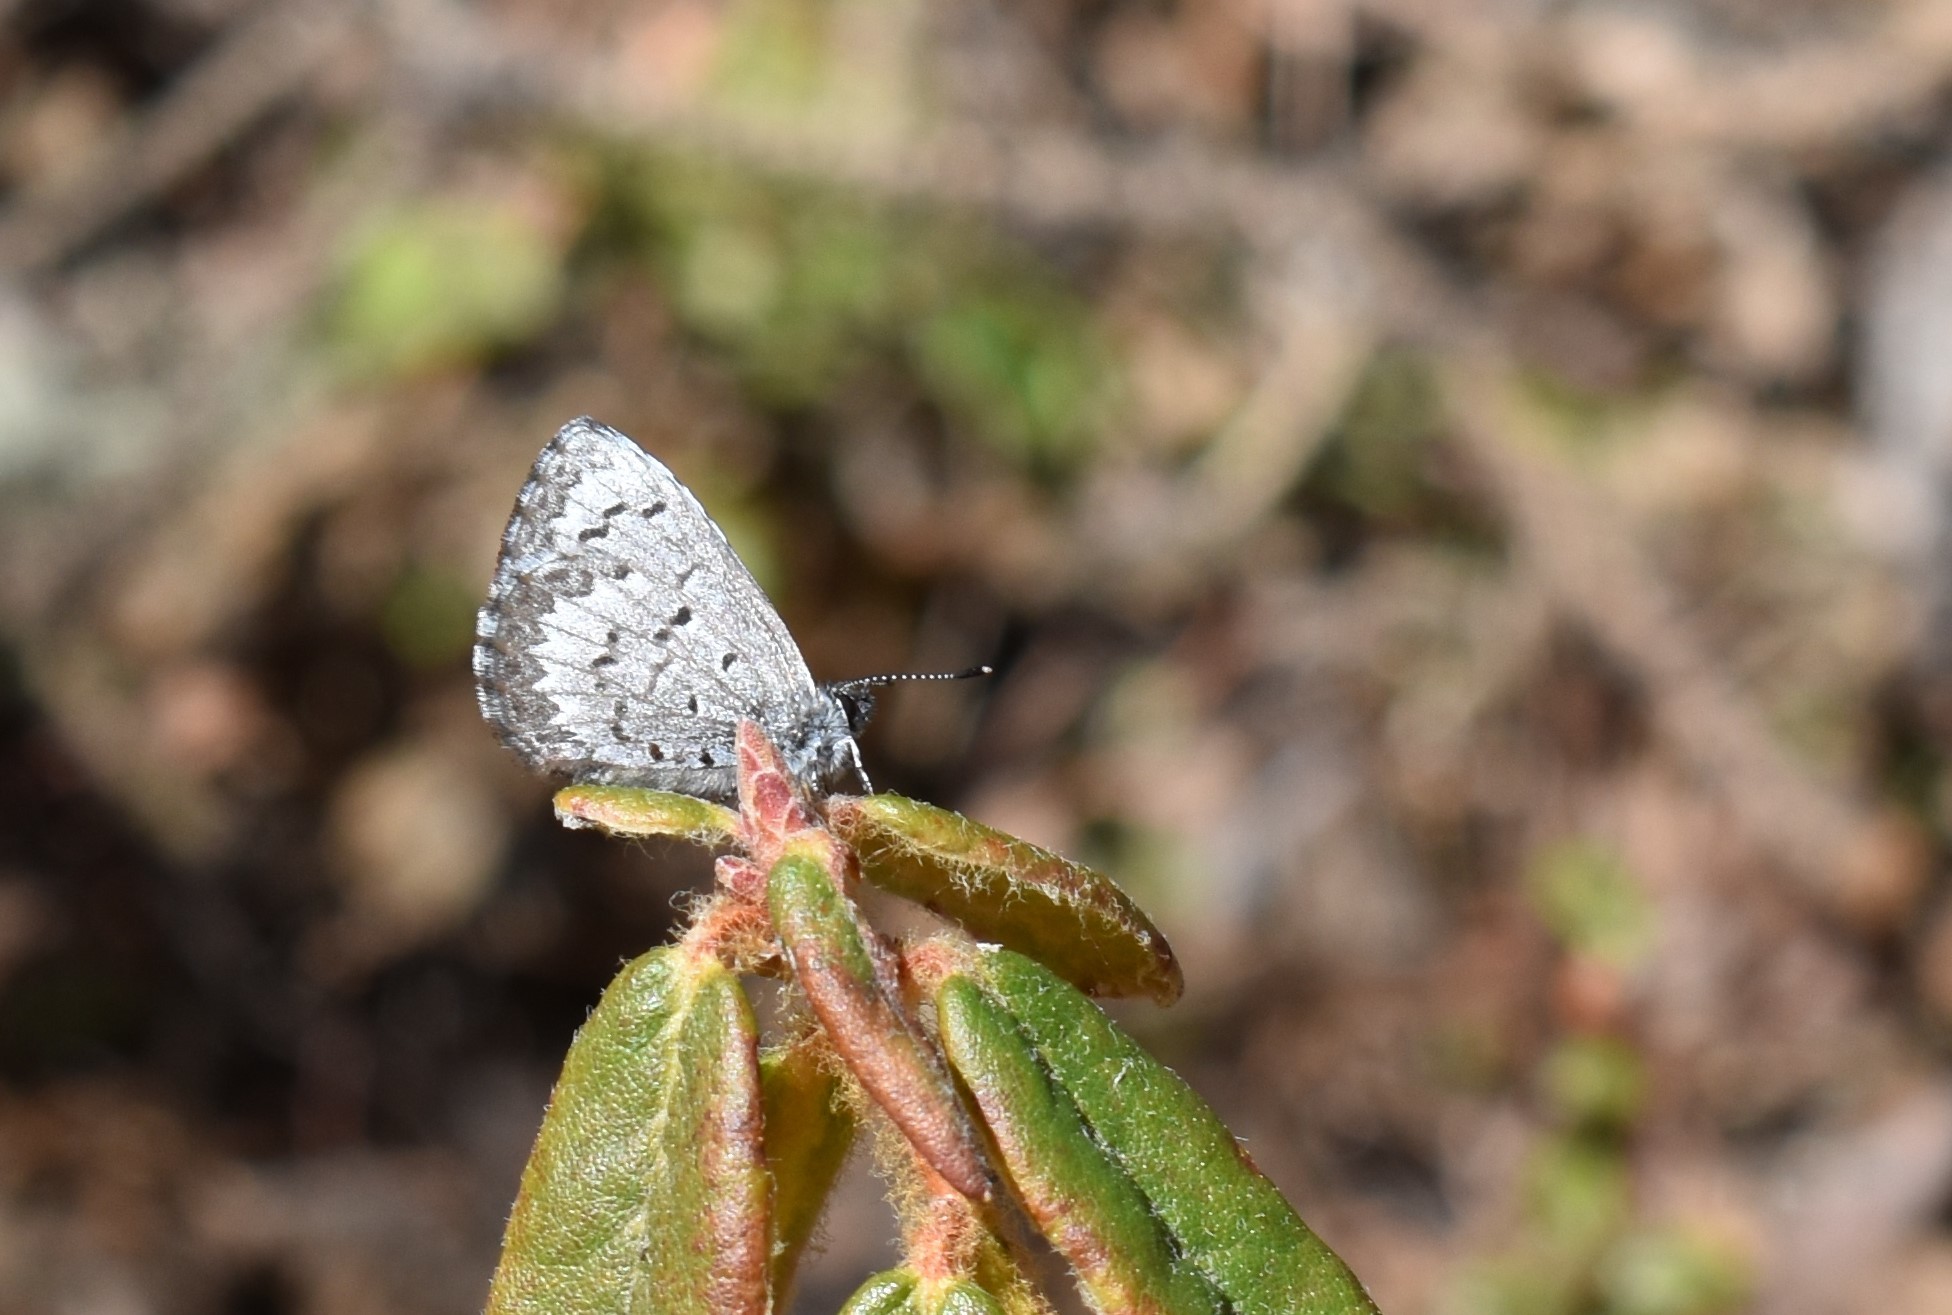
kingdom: Animalia
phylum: Arthropoda
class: Insecta
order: Lepidoptera
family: Lycaenidae
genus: Celastrina
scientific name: Celastrina lucia
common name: Lucia azure
